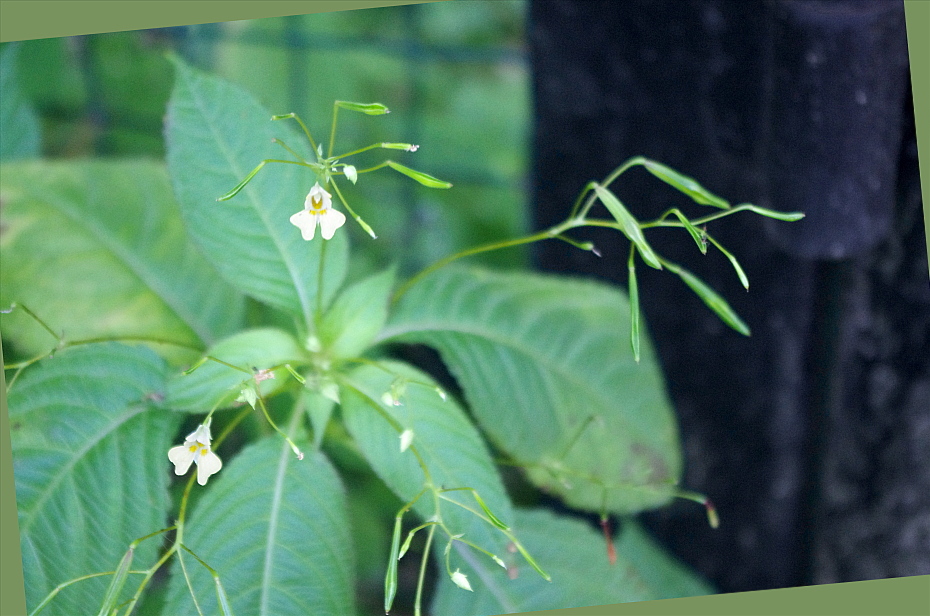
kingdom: Plantae
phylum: Tracheophyta
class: Magnoliopsida
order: Ericales
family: Balsaminaceae
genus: Impatiens
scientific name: Impatiens parviflora
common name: Small balsam
